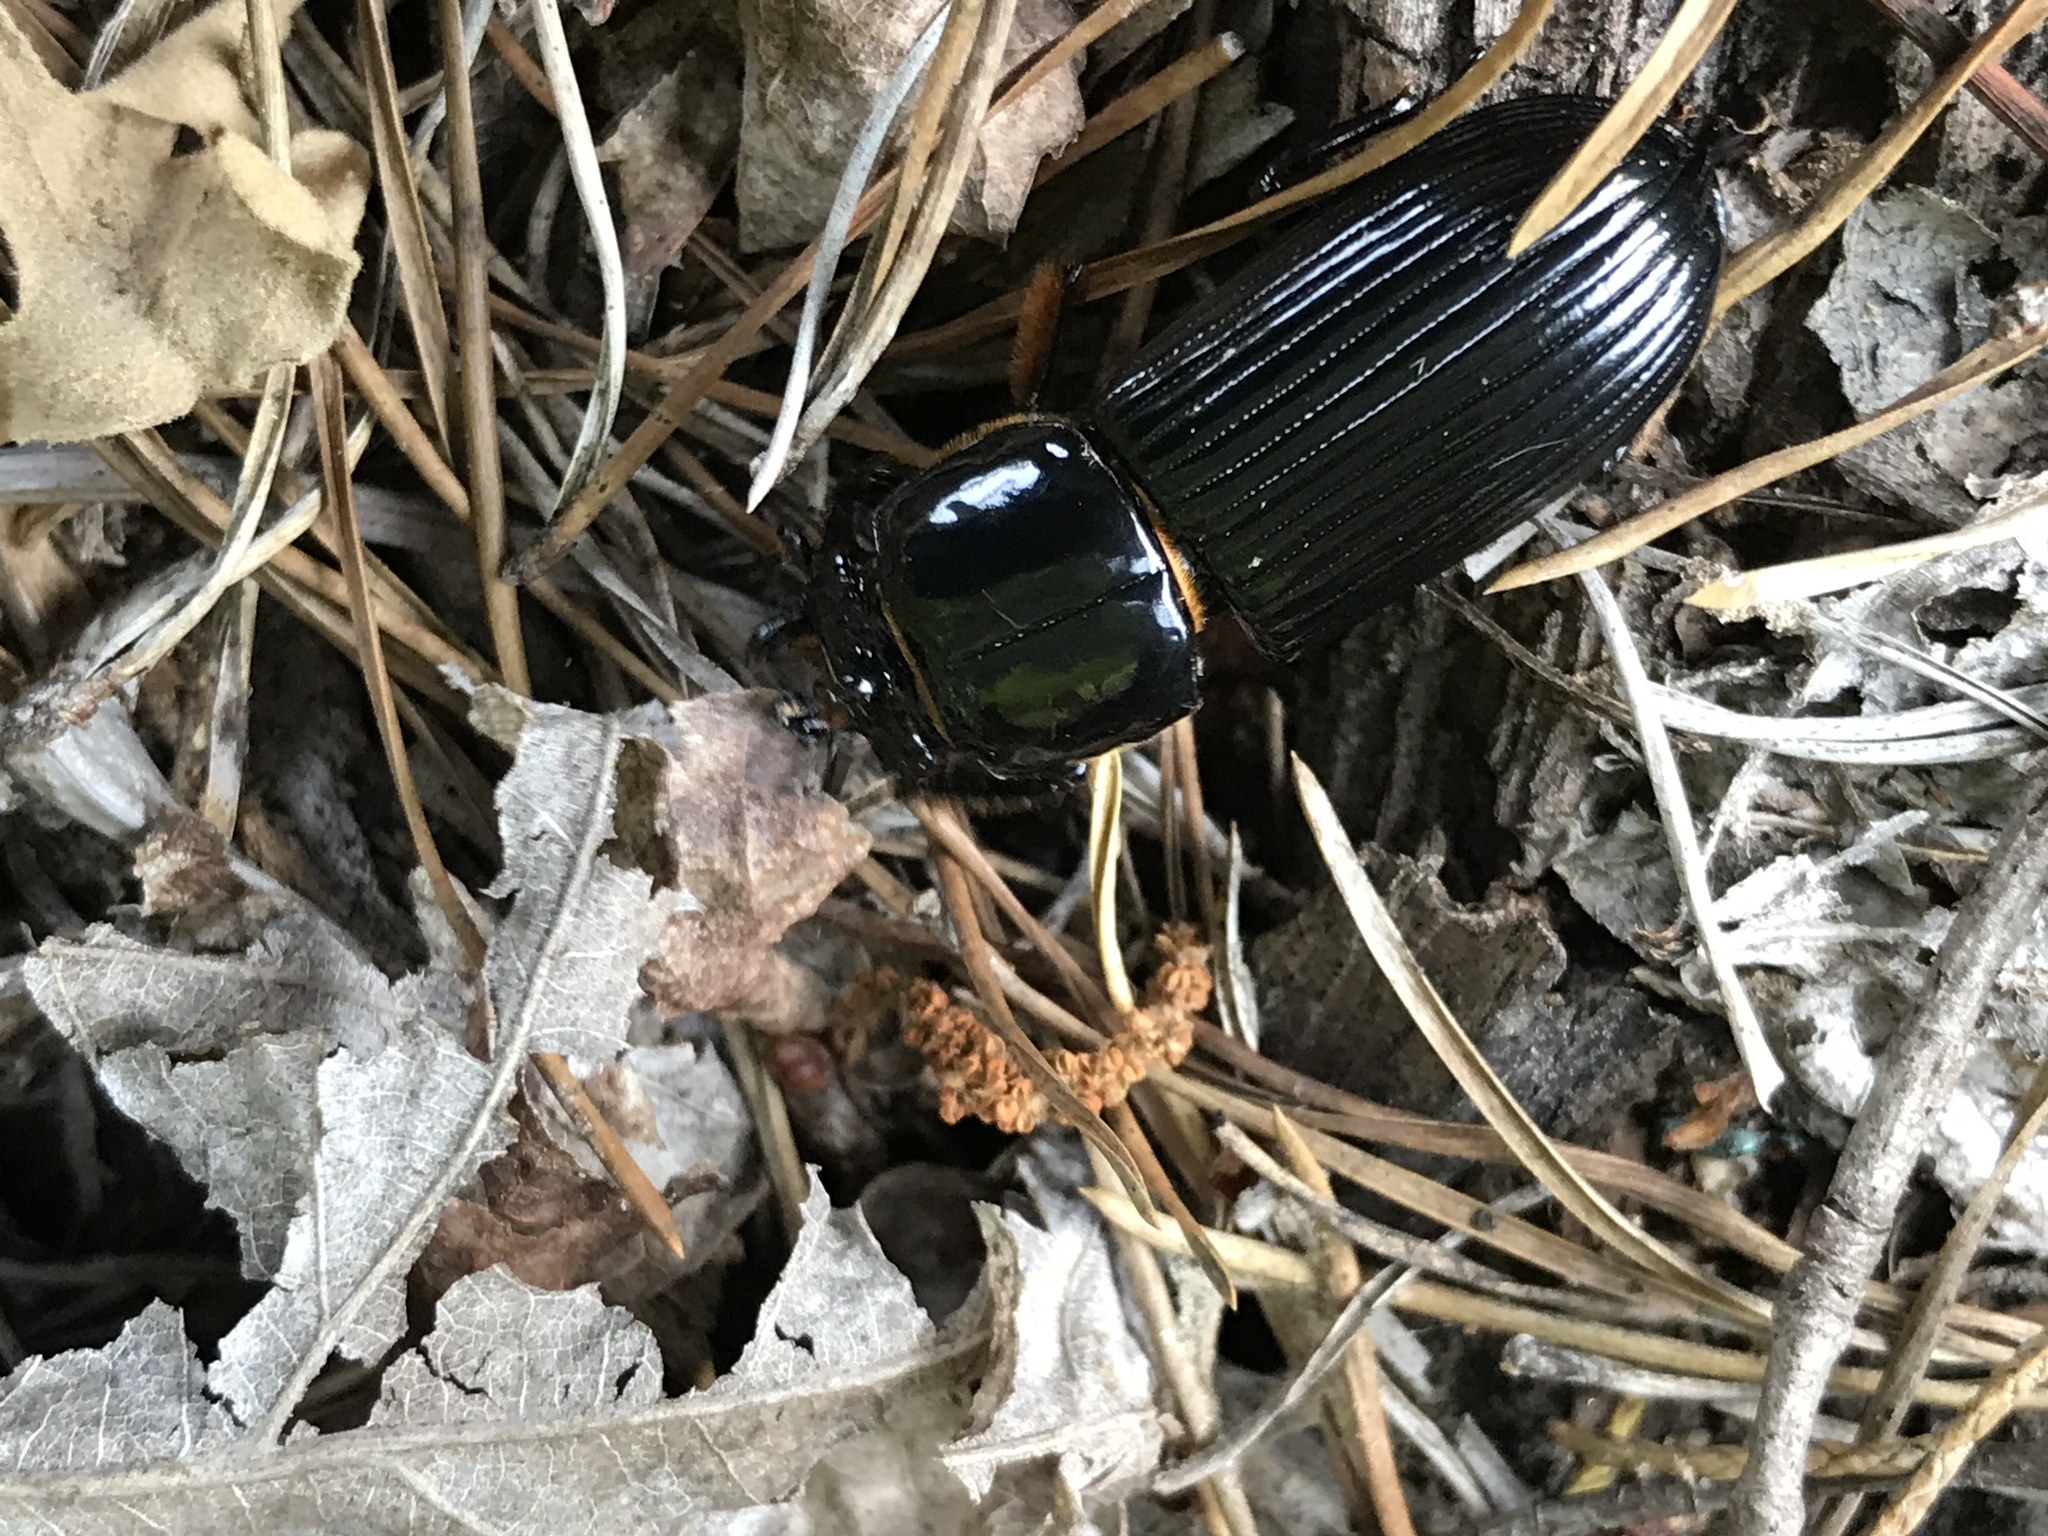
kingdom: Animalia
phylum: Arthropoda
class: Insecta
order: Coleoptera
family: Passalidae
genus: Odontotaenius
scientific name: Odontotaenius disjunctus
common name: Patent leather beetle
